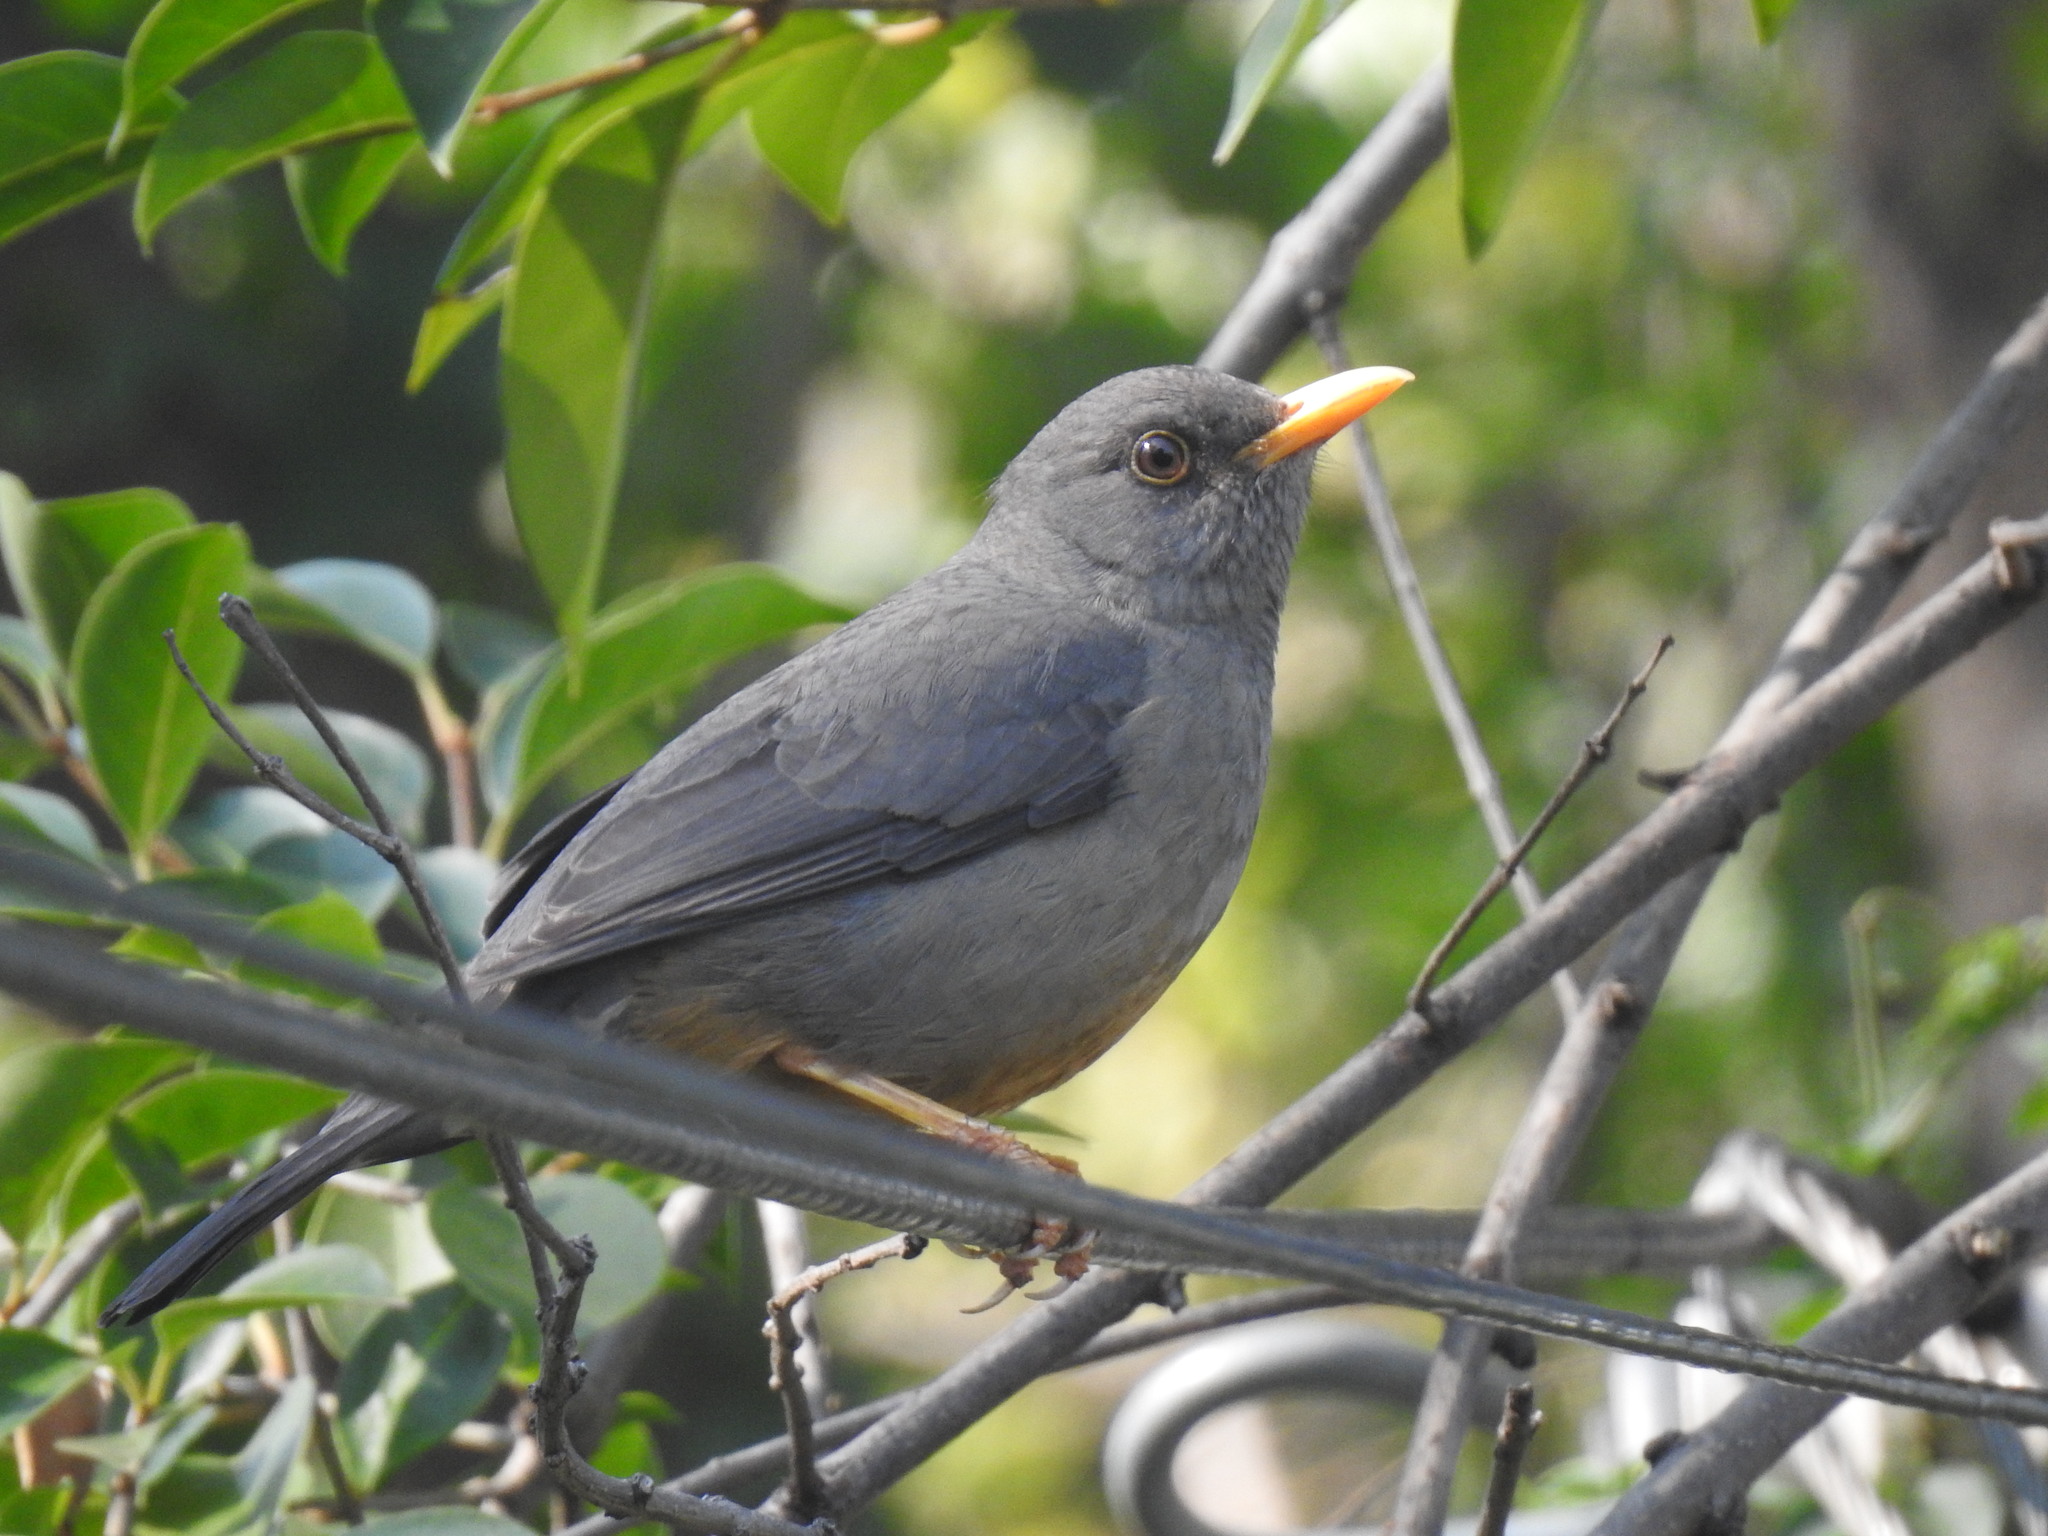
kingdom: Animalia
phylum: Chordata
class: Aves
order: Passeriformes
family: Turdidae
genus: Turdus
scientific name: Turdus smithi
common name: Karoo thrush
